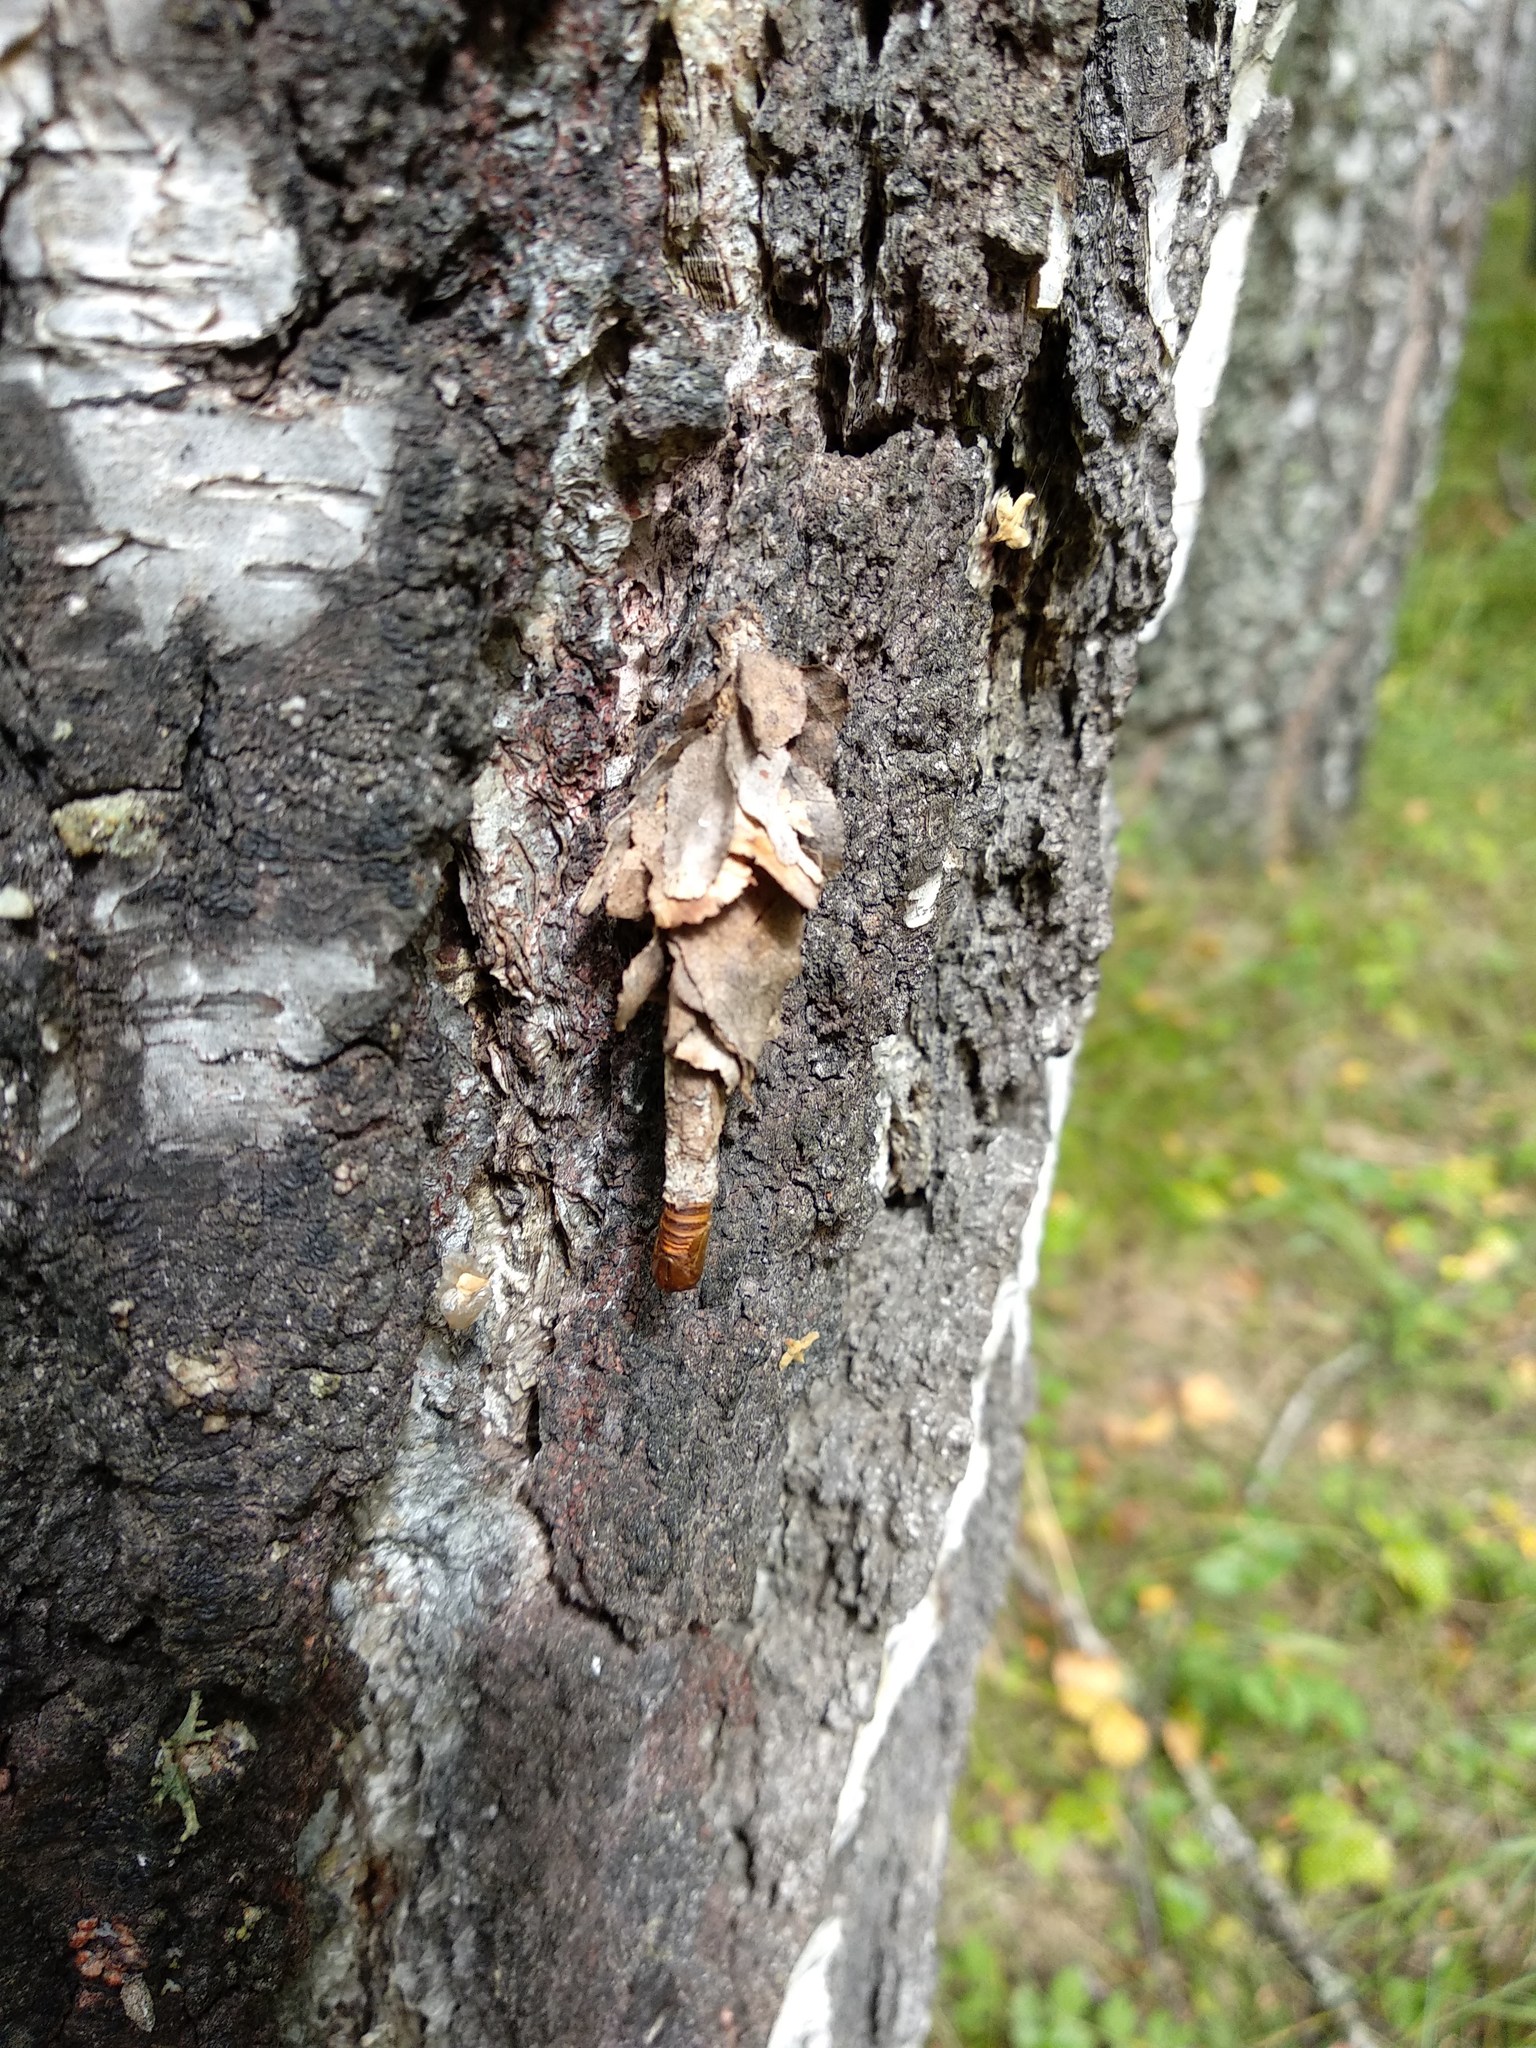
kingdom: Animalia
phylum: Arthropoda
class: Insecta
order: Lepidoptera
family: Psychidae
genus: Canephora
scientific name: Canephora hirsuta
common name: Hairy sweep
